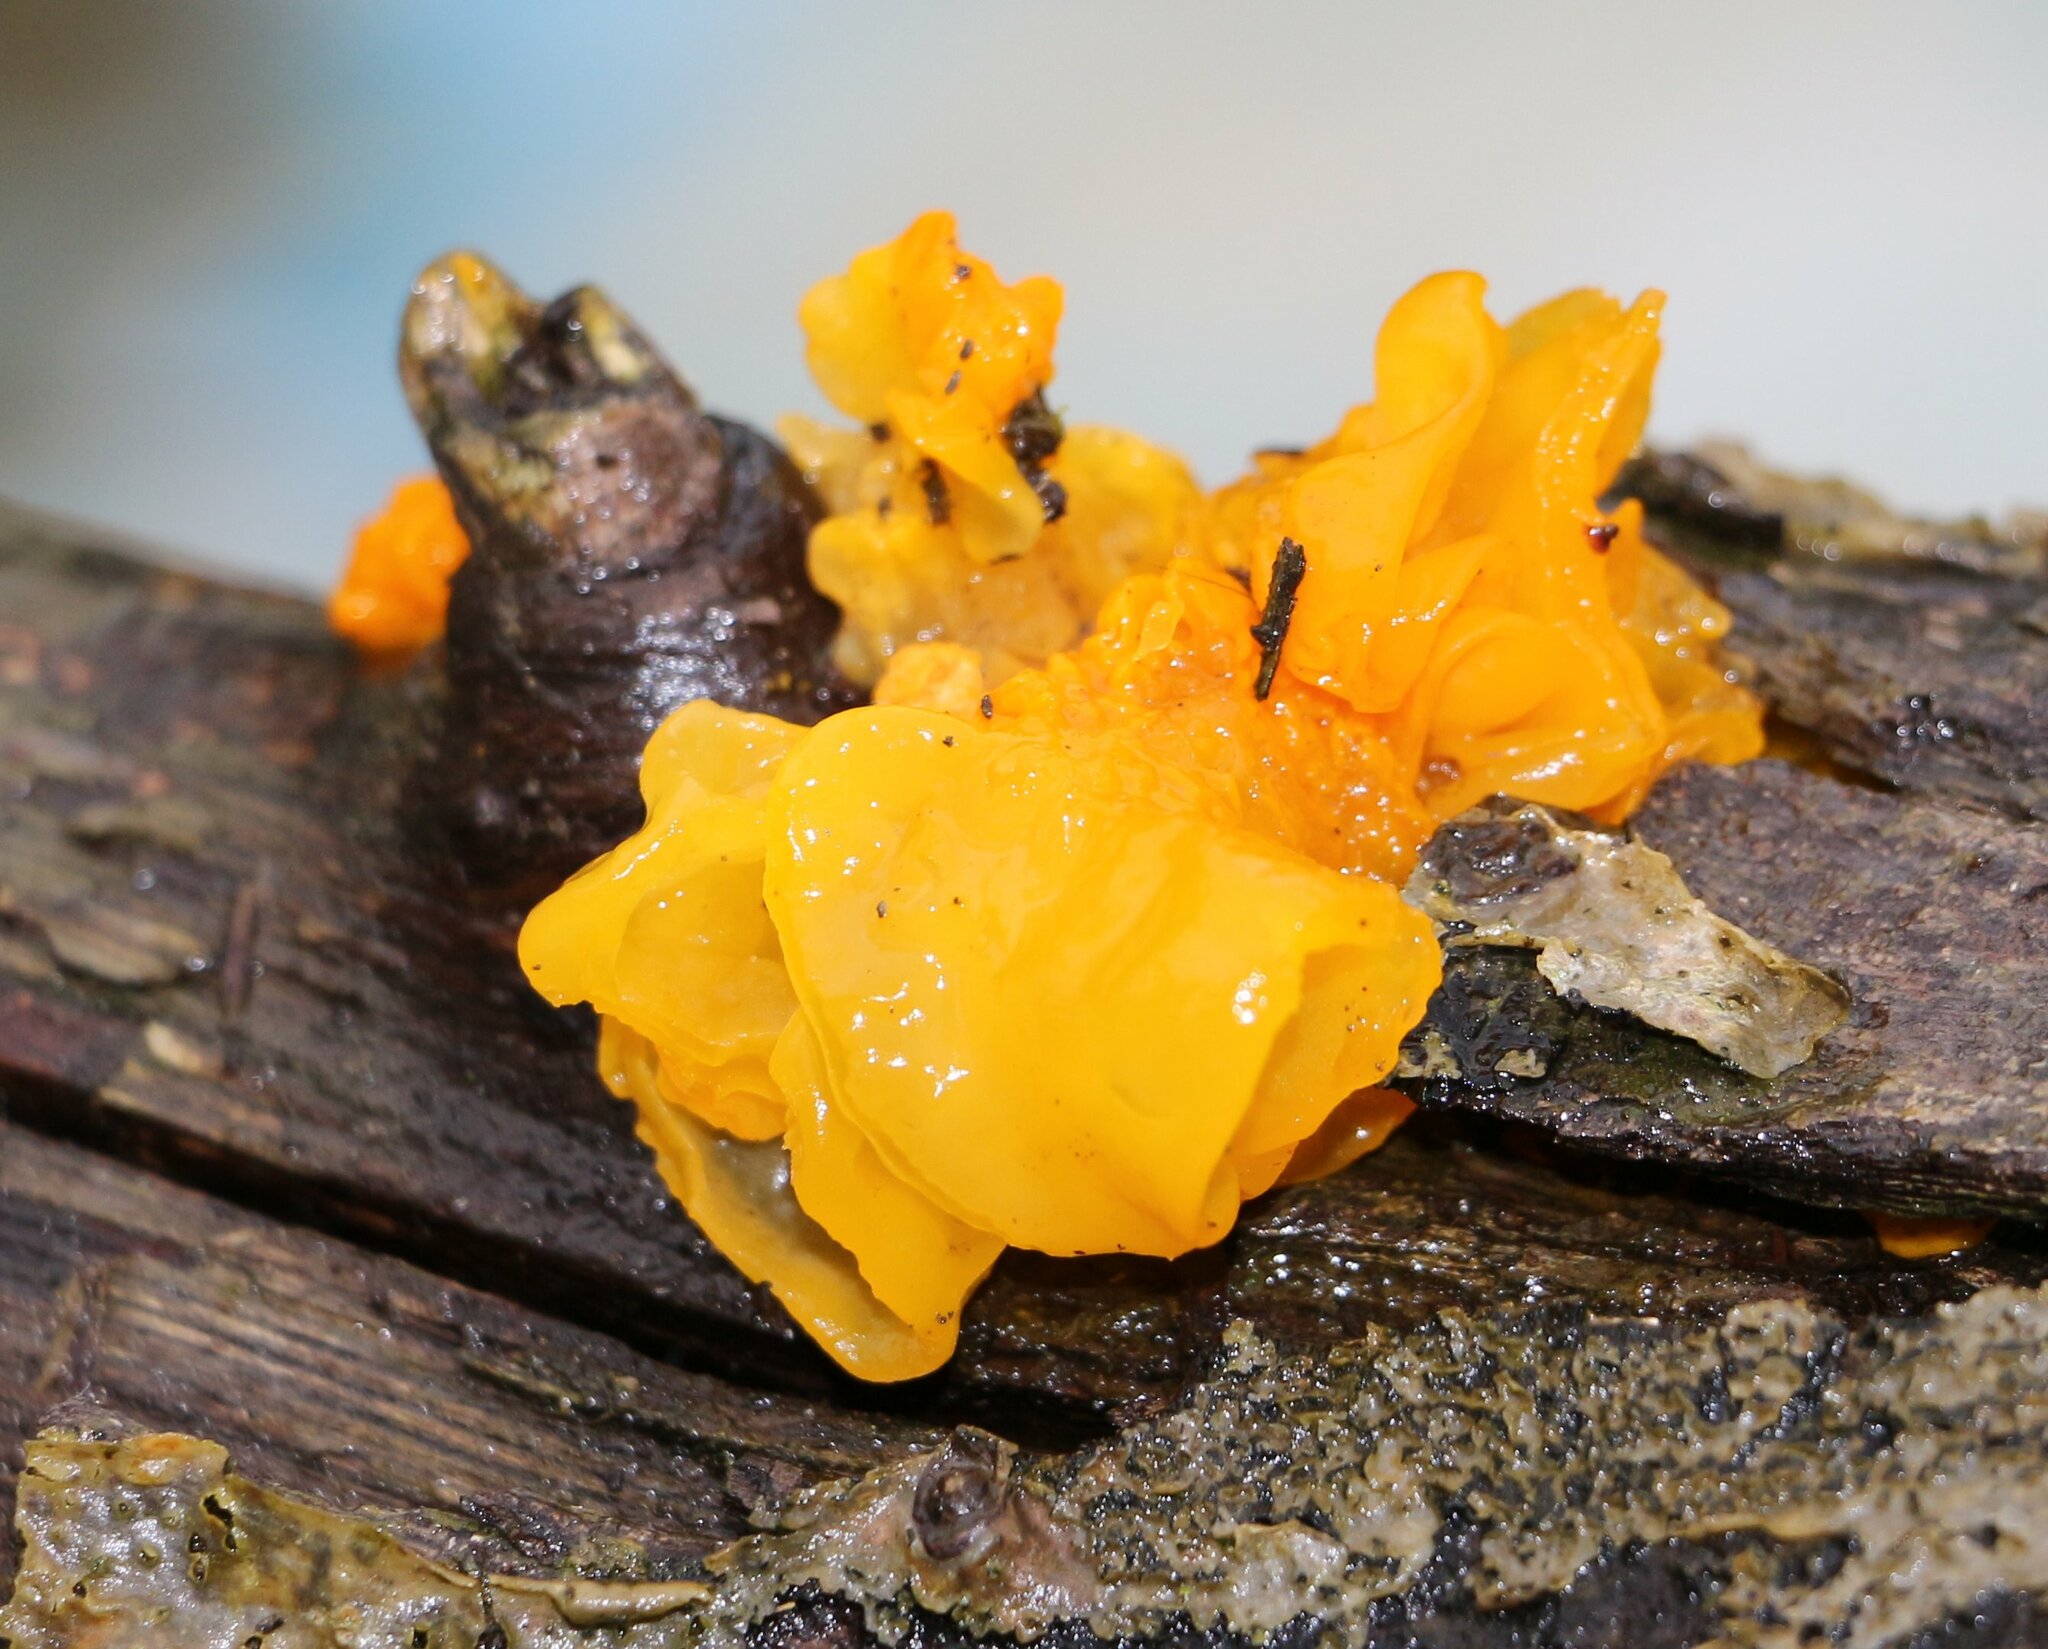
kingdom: Fungi
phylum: Basidiomycota
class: Tremellomycetes
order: Tremellales
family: Tremellaceae
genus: Tremella
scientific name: Tremella mesenterica
